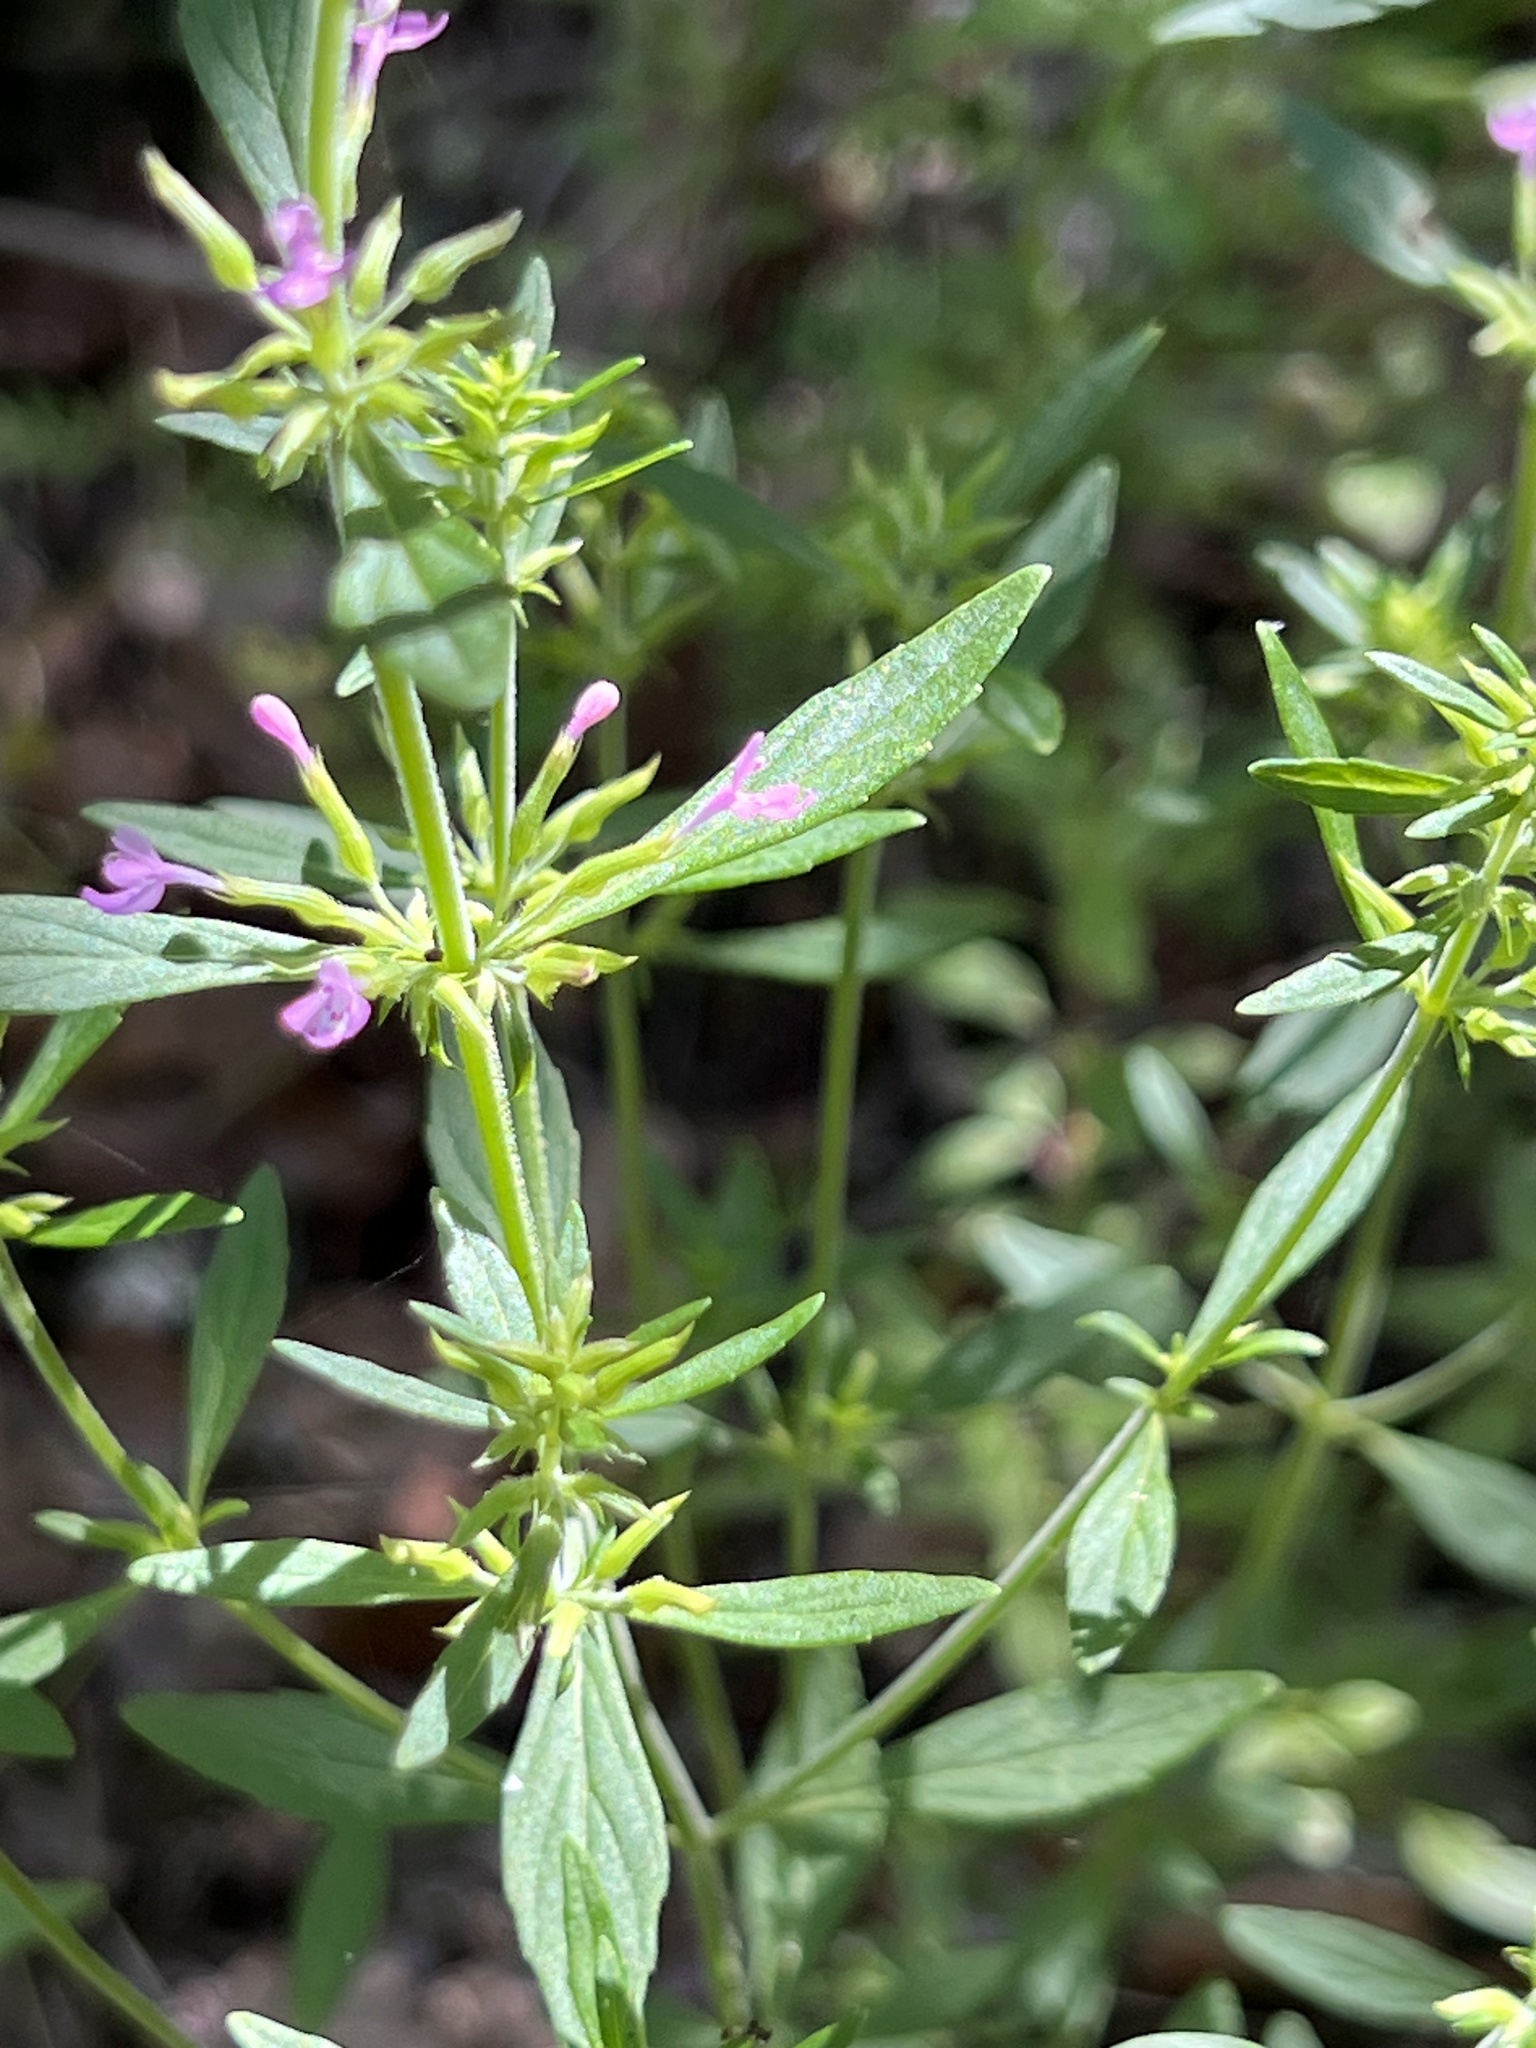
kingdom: Plantae
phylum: Tracheophyta
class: Magnoliopsida
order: Lamiales
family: Lamiaceae
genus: Hedeoma
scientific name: Hedeoma acinoides
